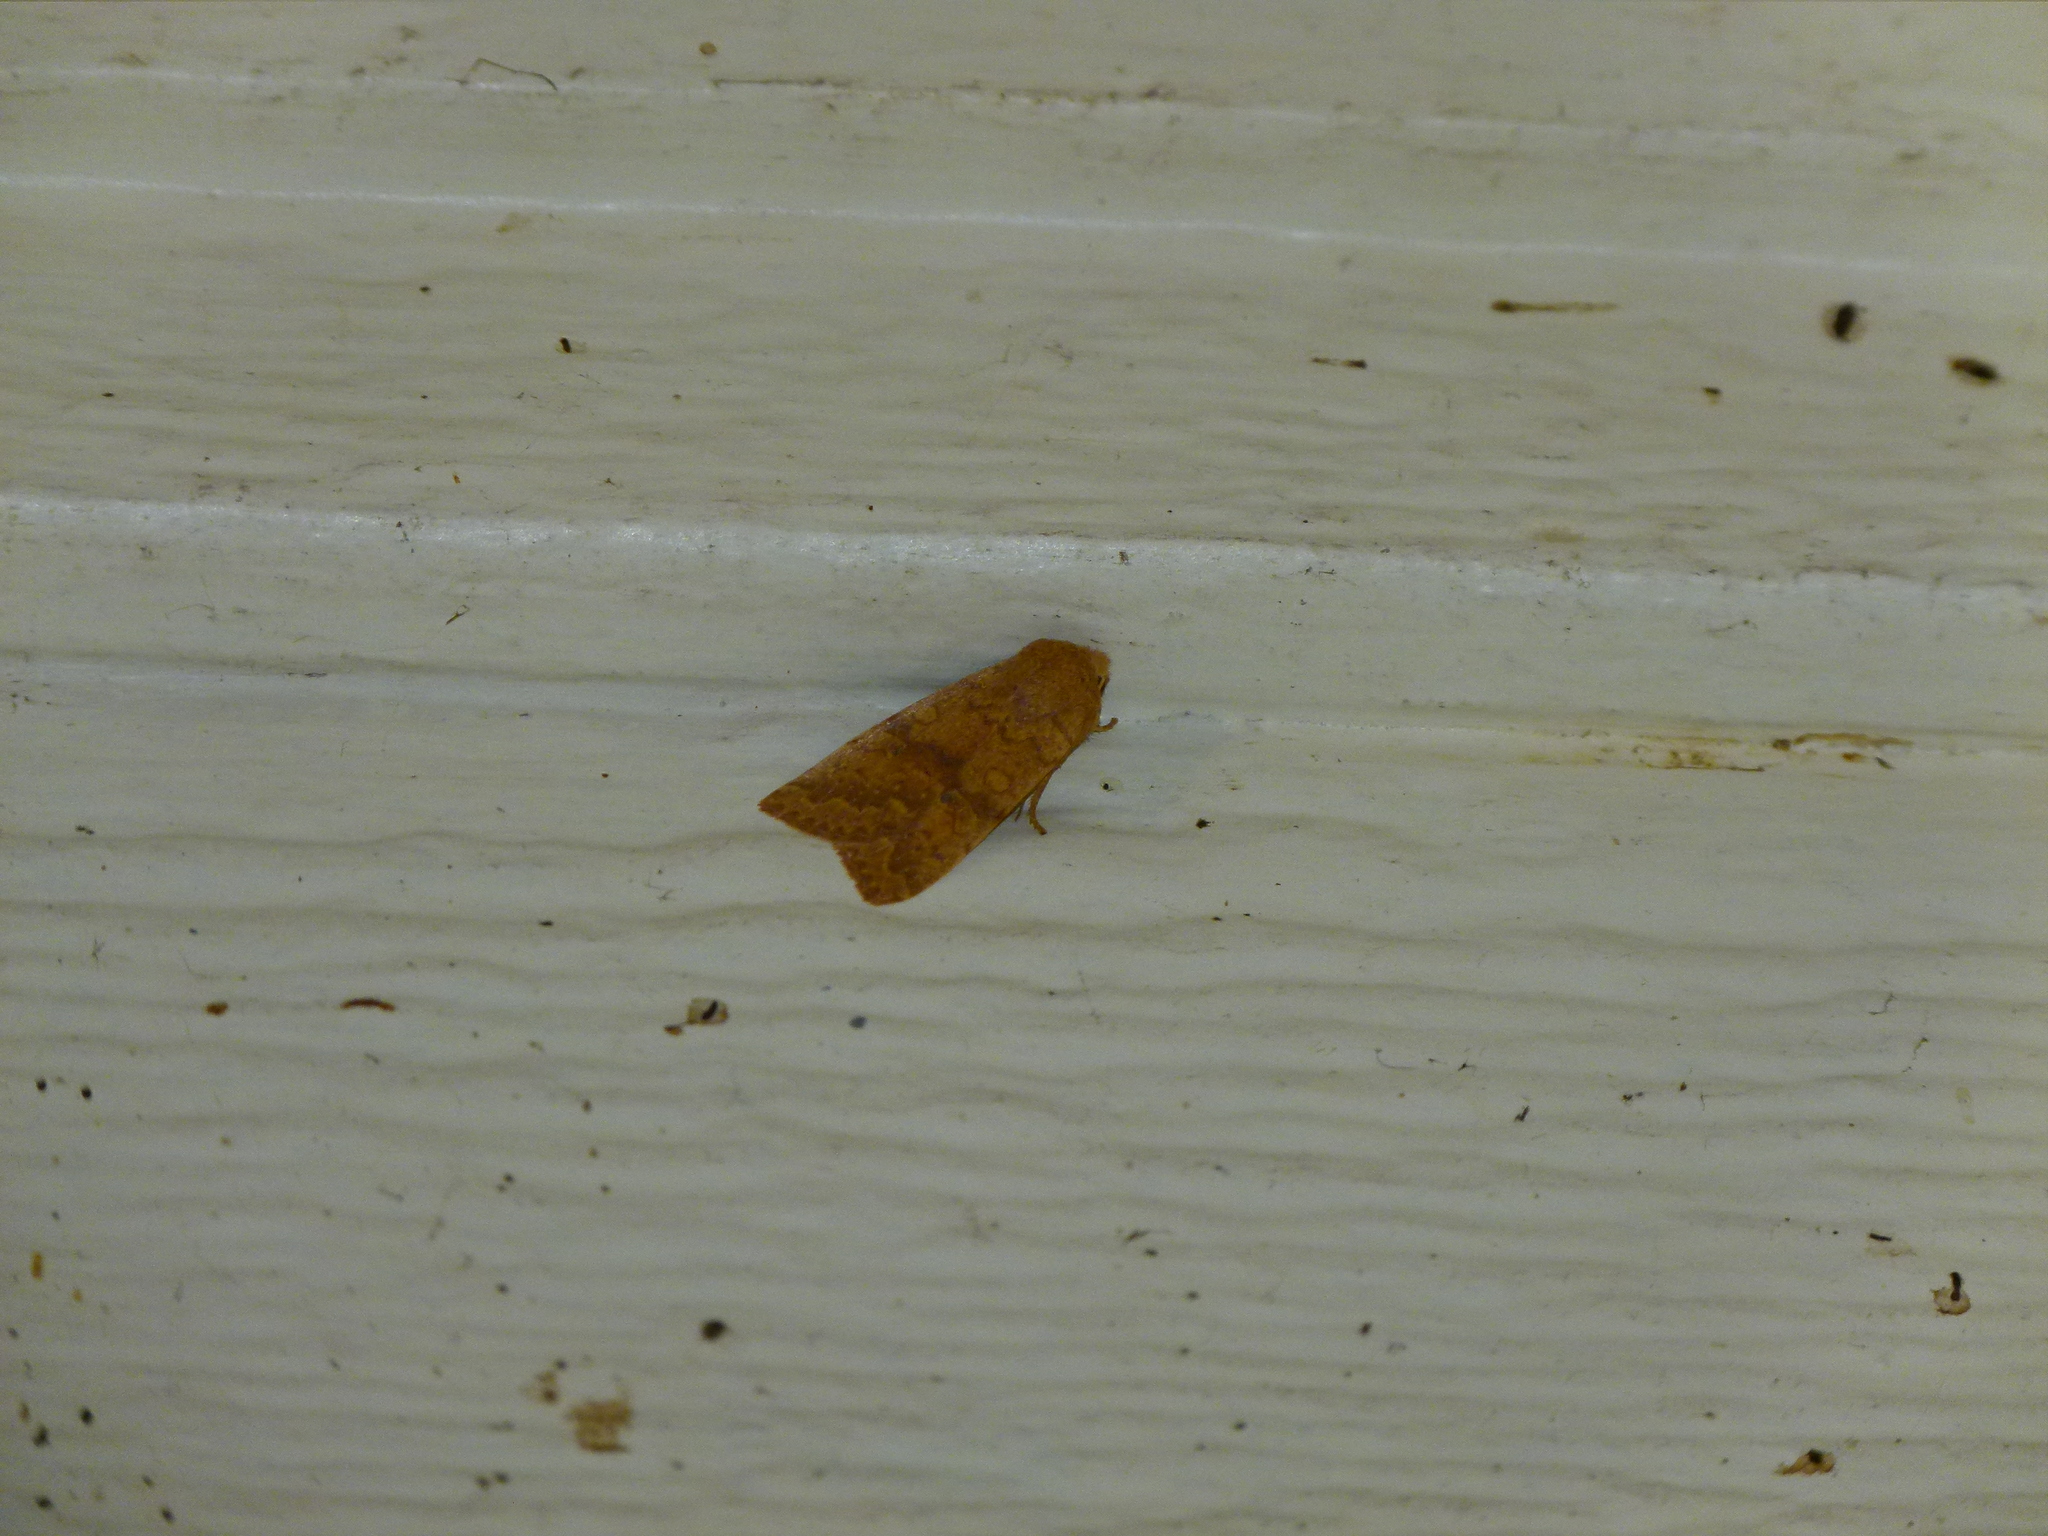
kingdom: Animalia
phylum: Arthropoda
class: Insecta
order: Lepidoptera
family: Noctuidae
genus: Agrochola
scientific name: Agrochola bicolorago
